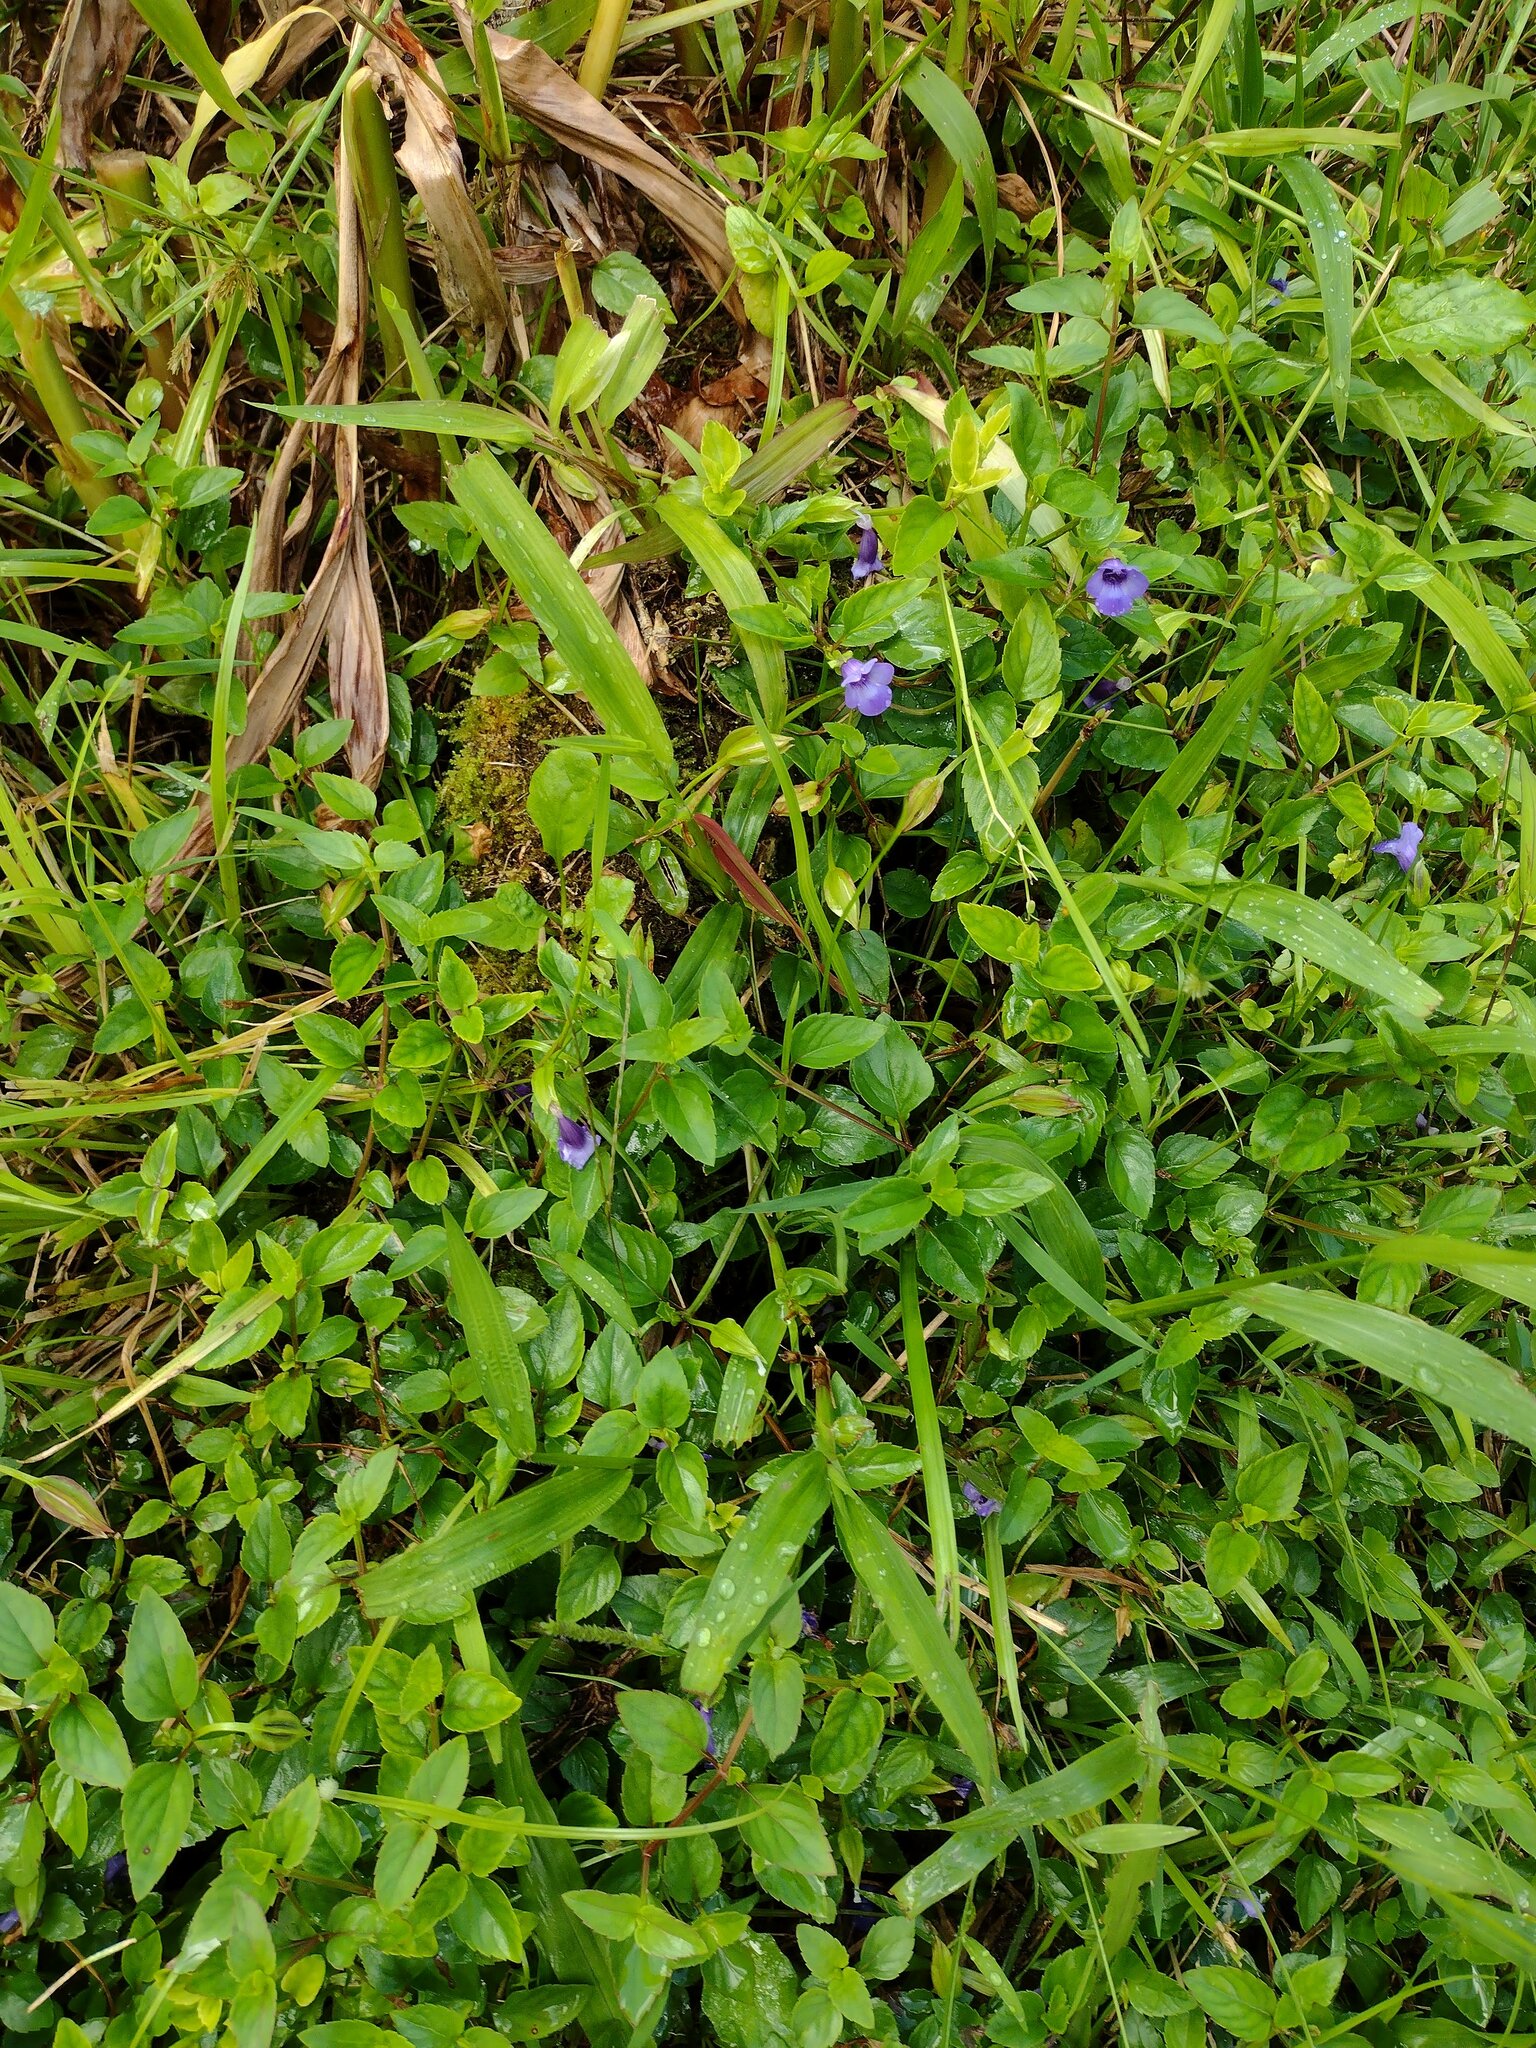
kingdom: Plantae
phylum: Tracheophyta
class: Magnoliopsida
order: Lamiales
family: Linderniaceae
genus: Torenia
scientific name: Torenia asiatica
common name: Wishbone flower
